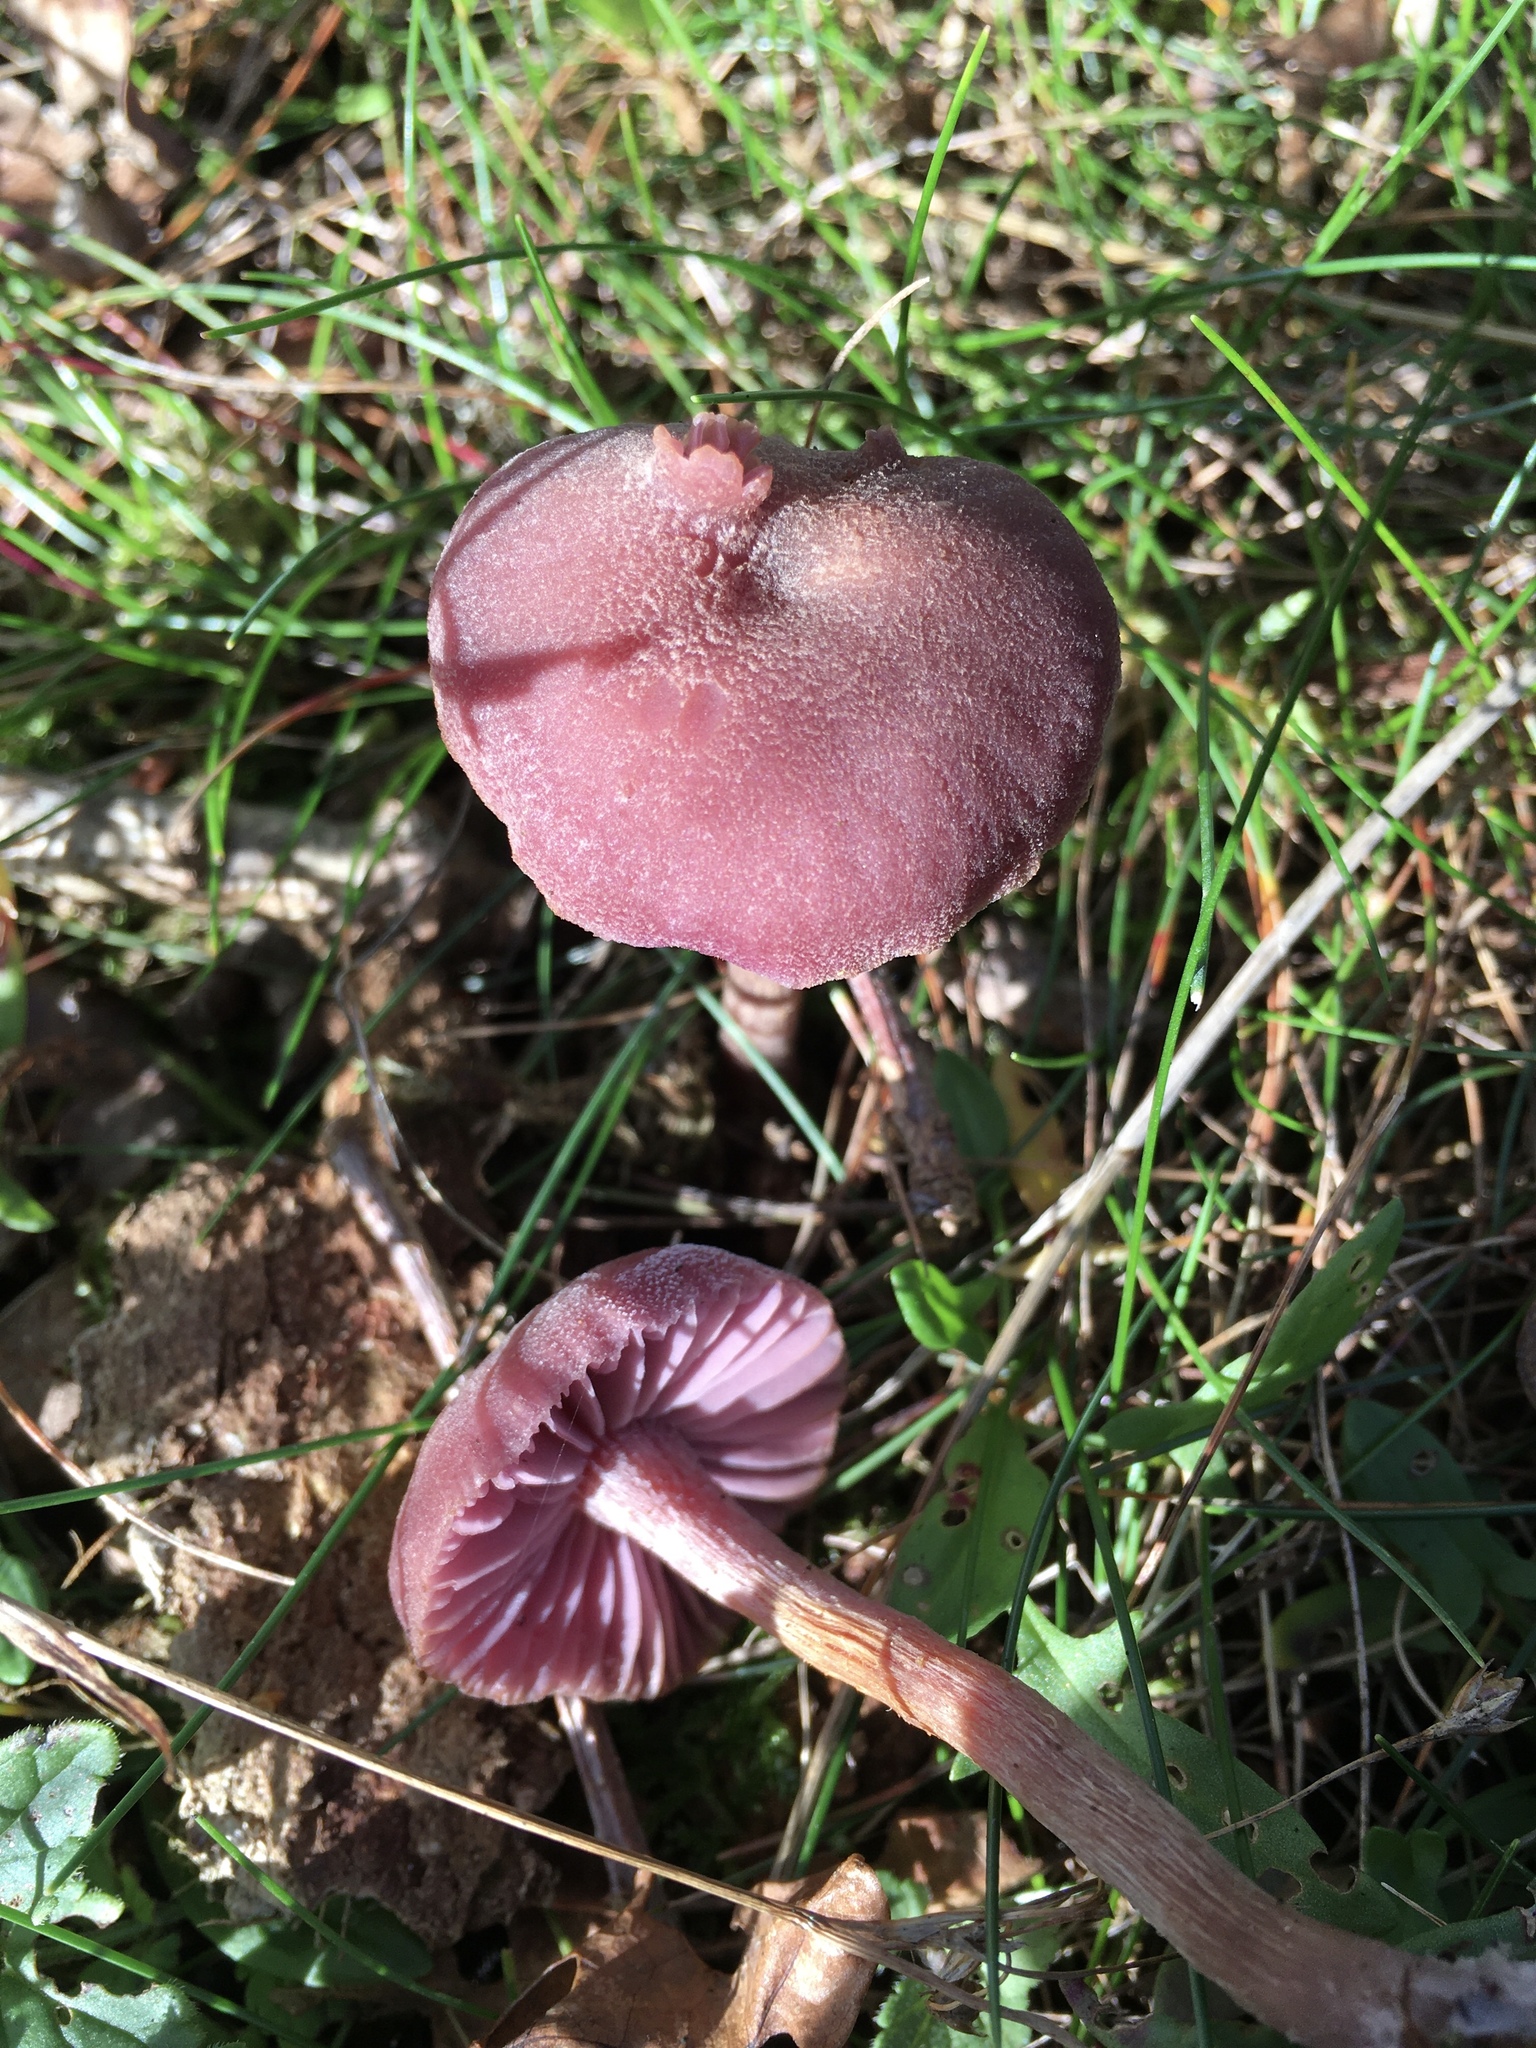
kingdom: Fungi
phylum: Basidiomycota
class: Agaricomycetes
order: Agaricales
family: Hydnangiaceae
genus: Laccaria
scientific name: Laccaria amethystina
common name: Amethyst deceiver
